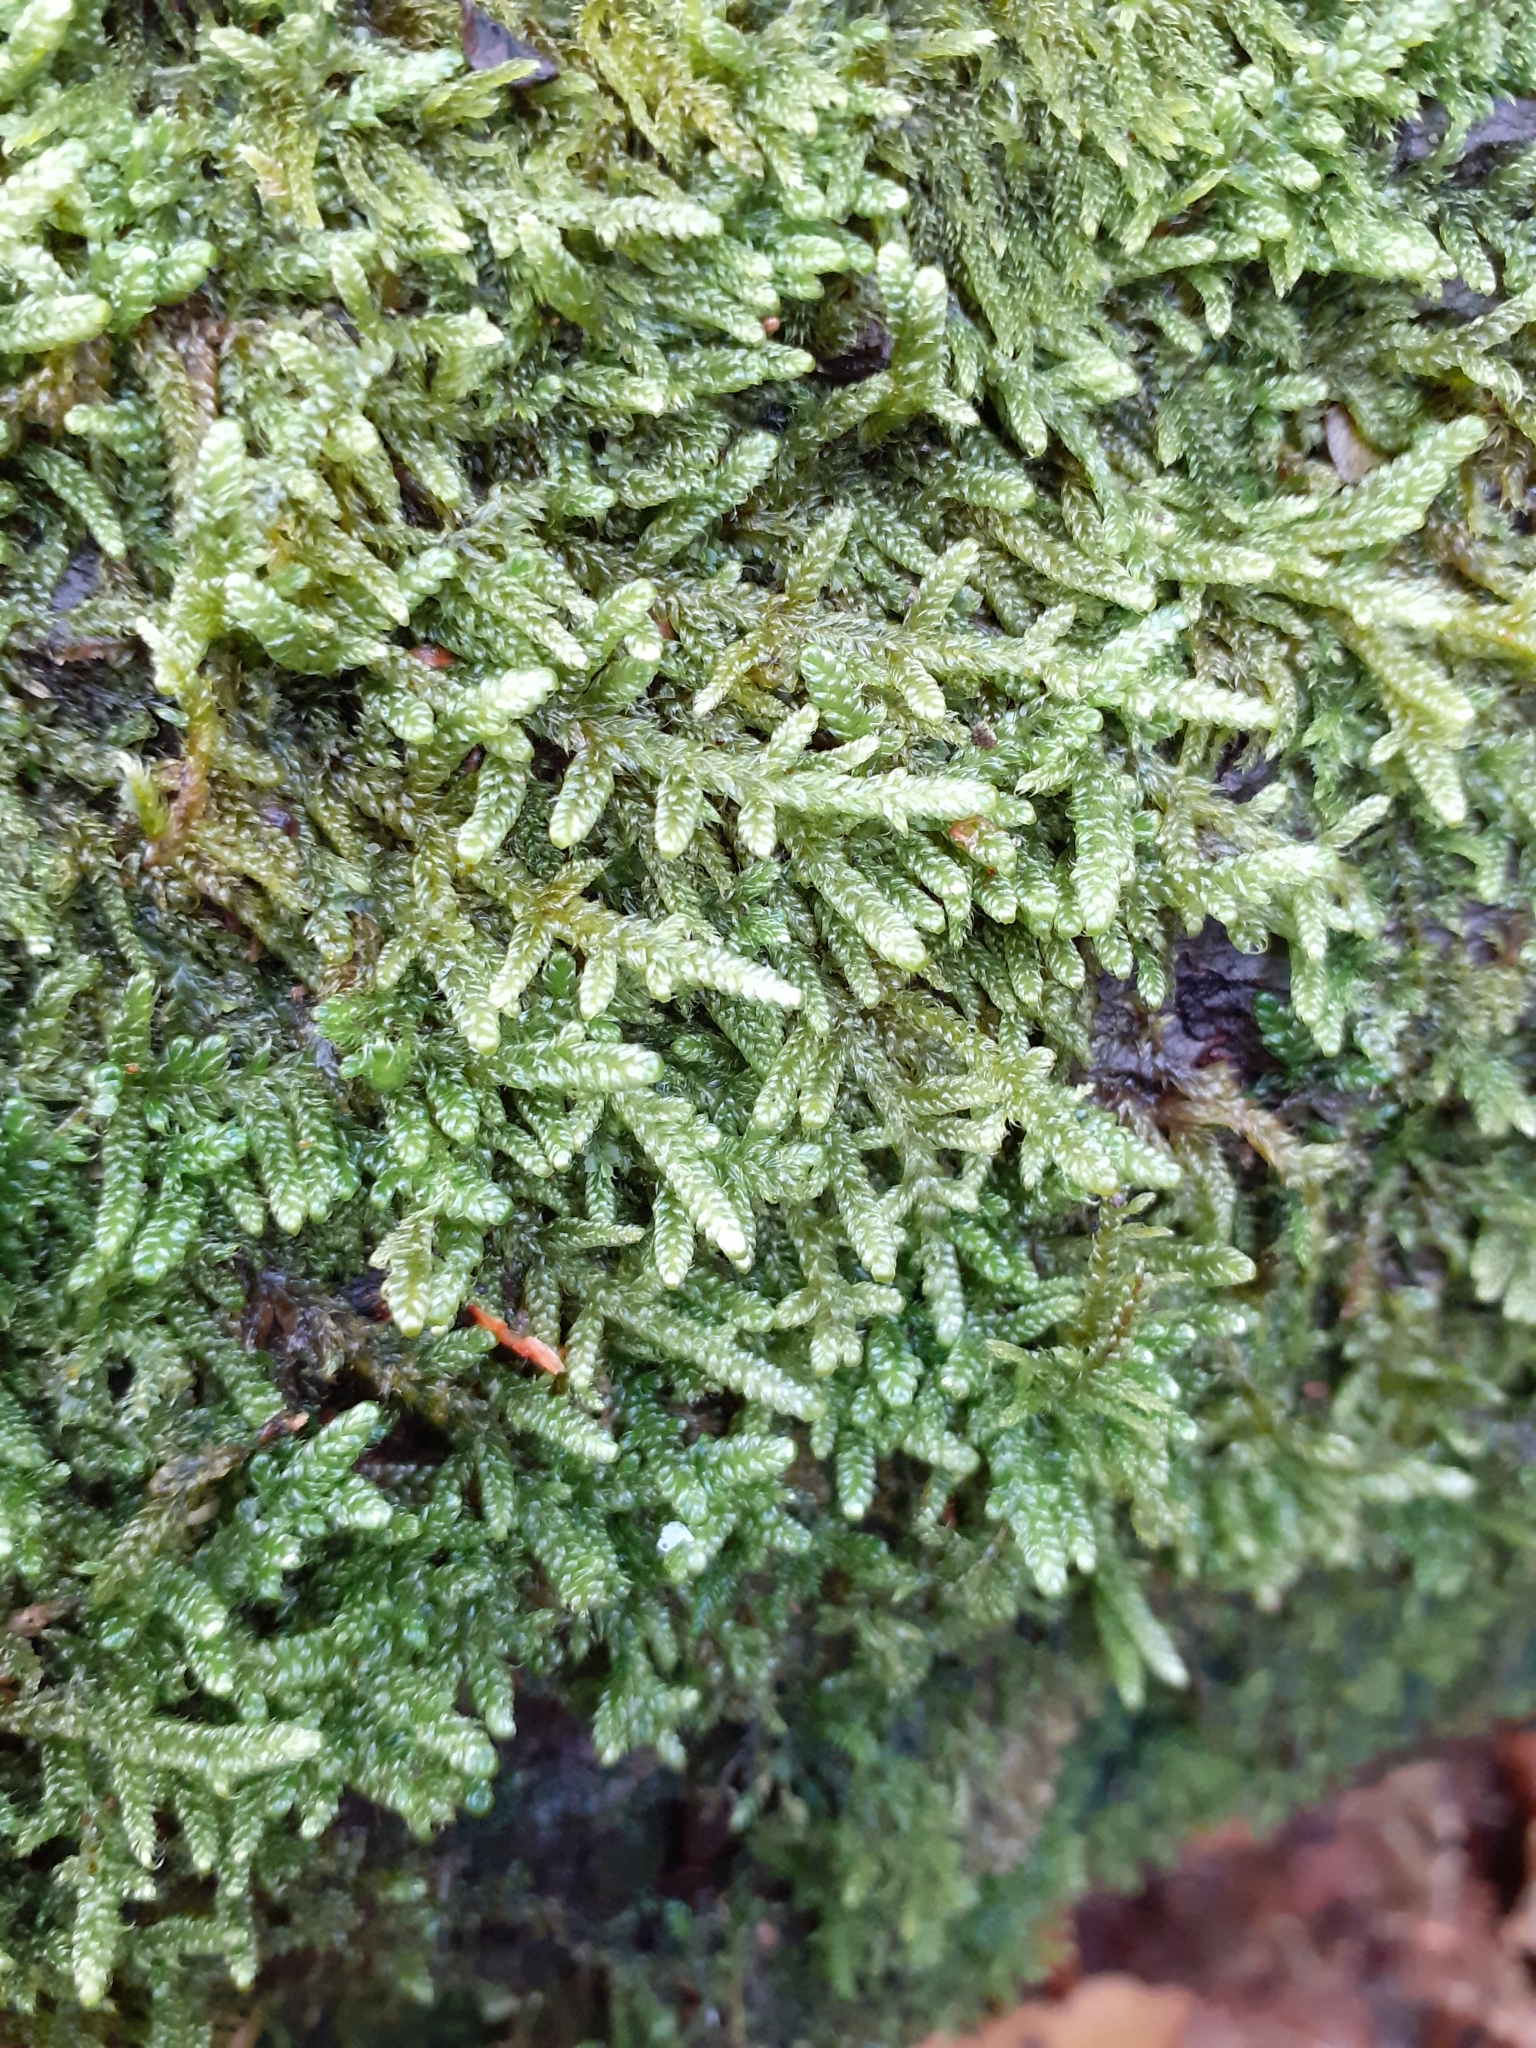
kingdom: Plantae
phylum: Bryophyta
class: Bryopsida
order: Hypnales
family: Hypnaceae
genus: Hypnum
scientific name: Hypnum cupressiforme
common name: Cypress-leaved plait-moss
